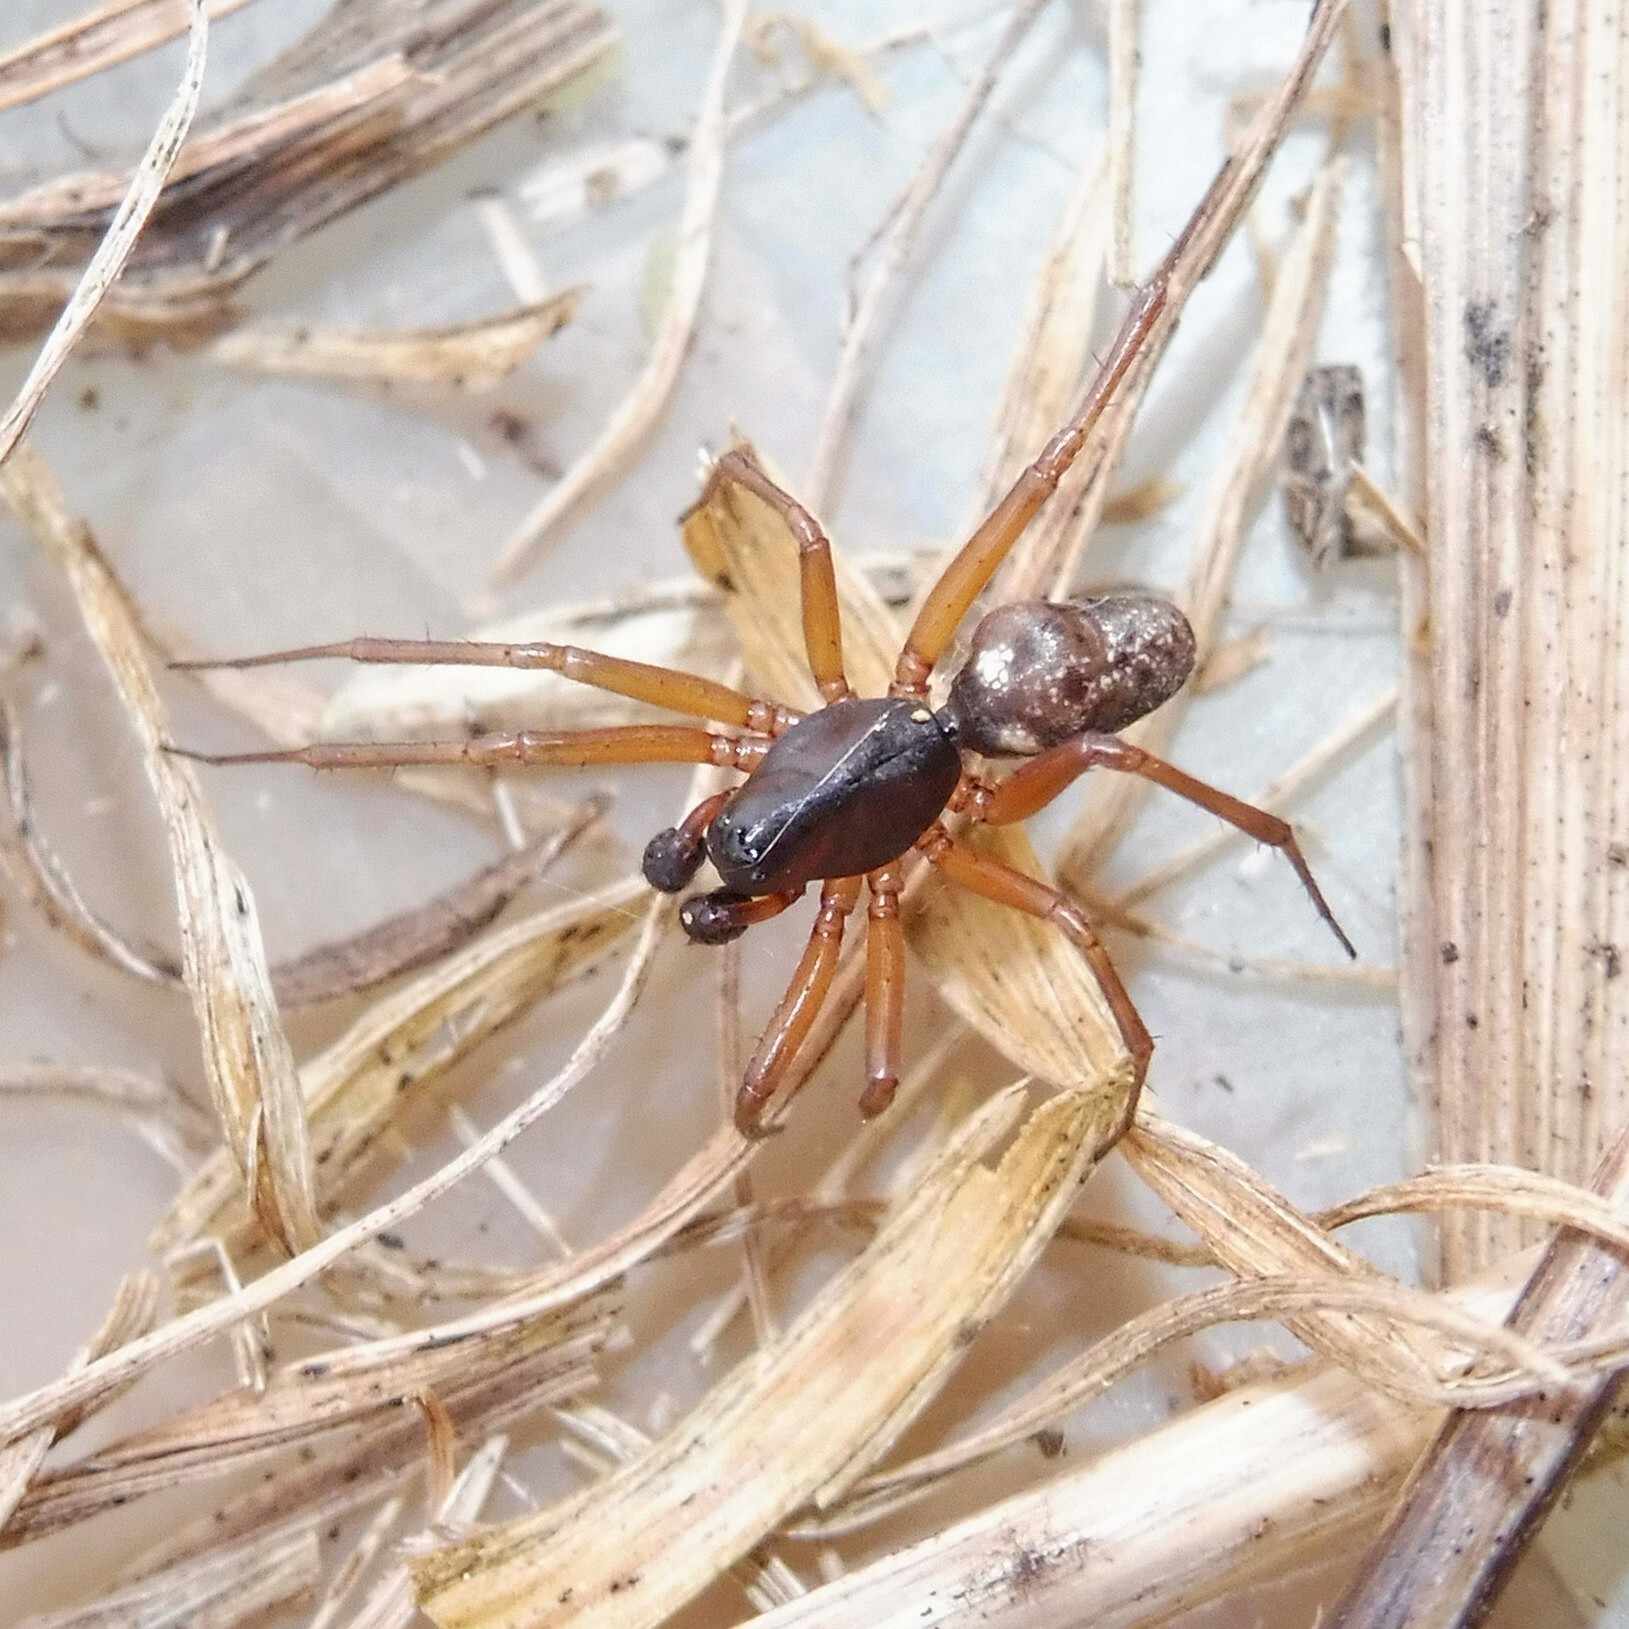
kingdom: Animalia
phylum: Arthropoda
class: Arachnida
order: Araneae
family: Linyphiidae
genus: Neriene
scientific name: Neriene clathrata
